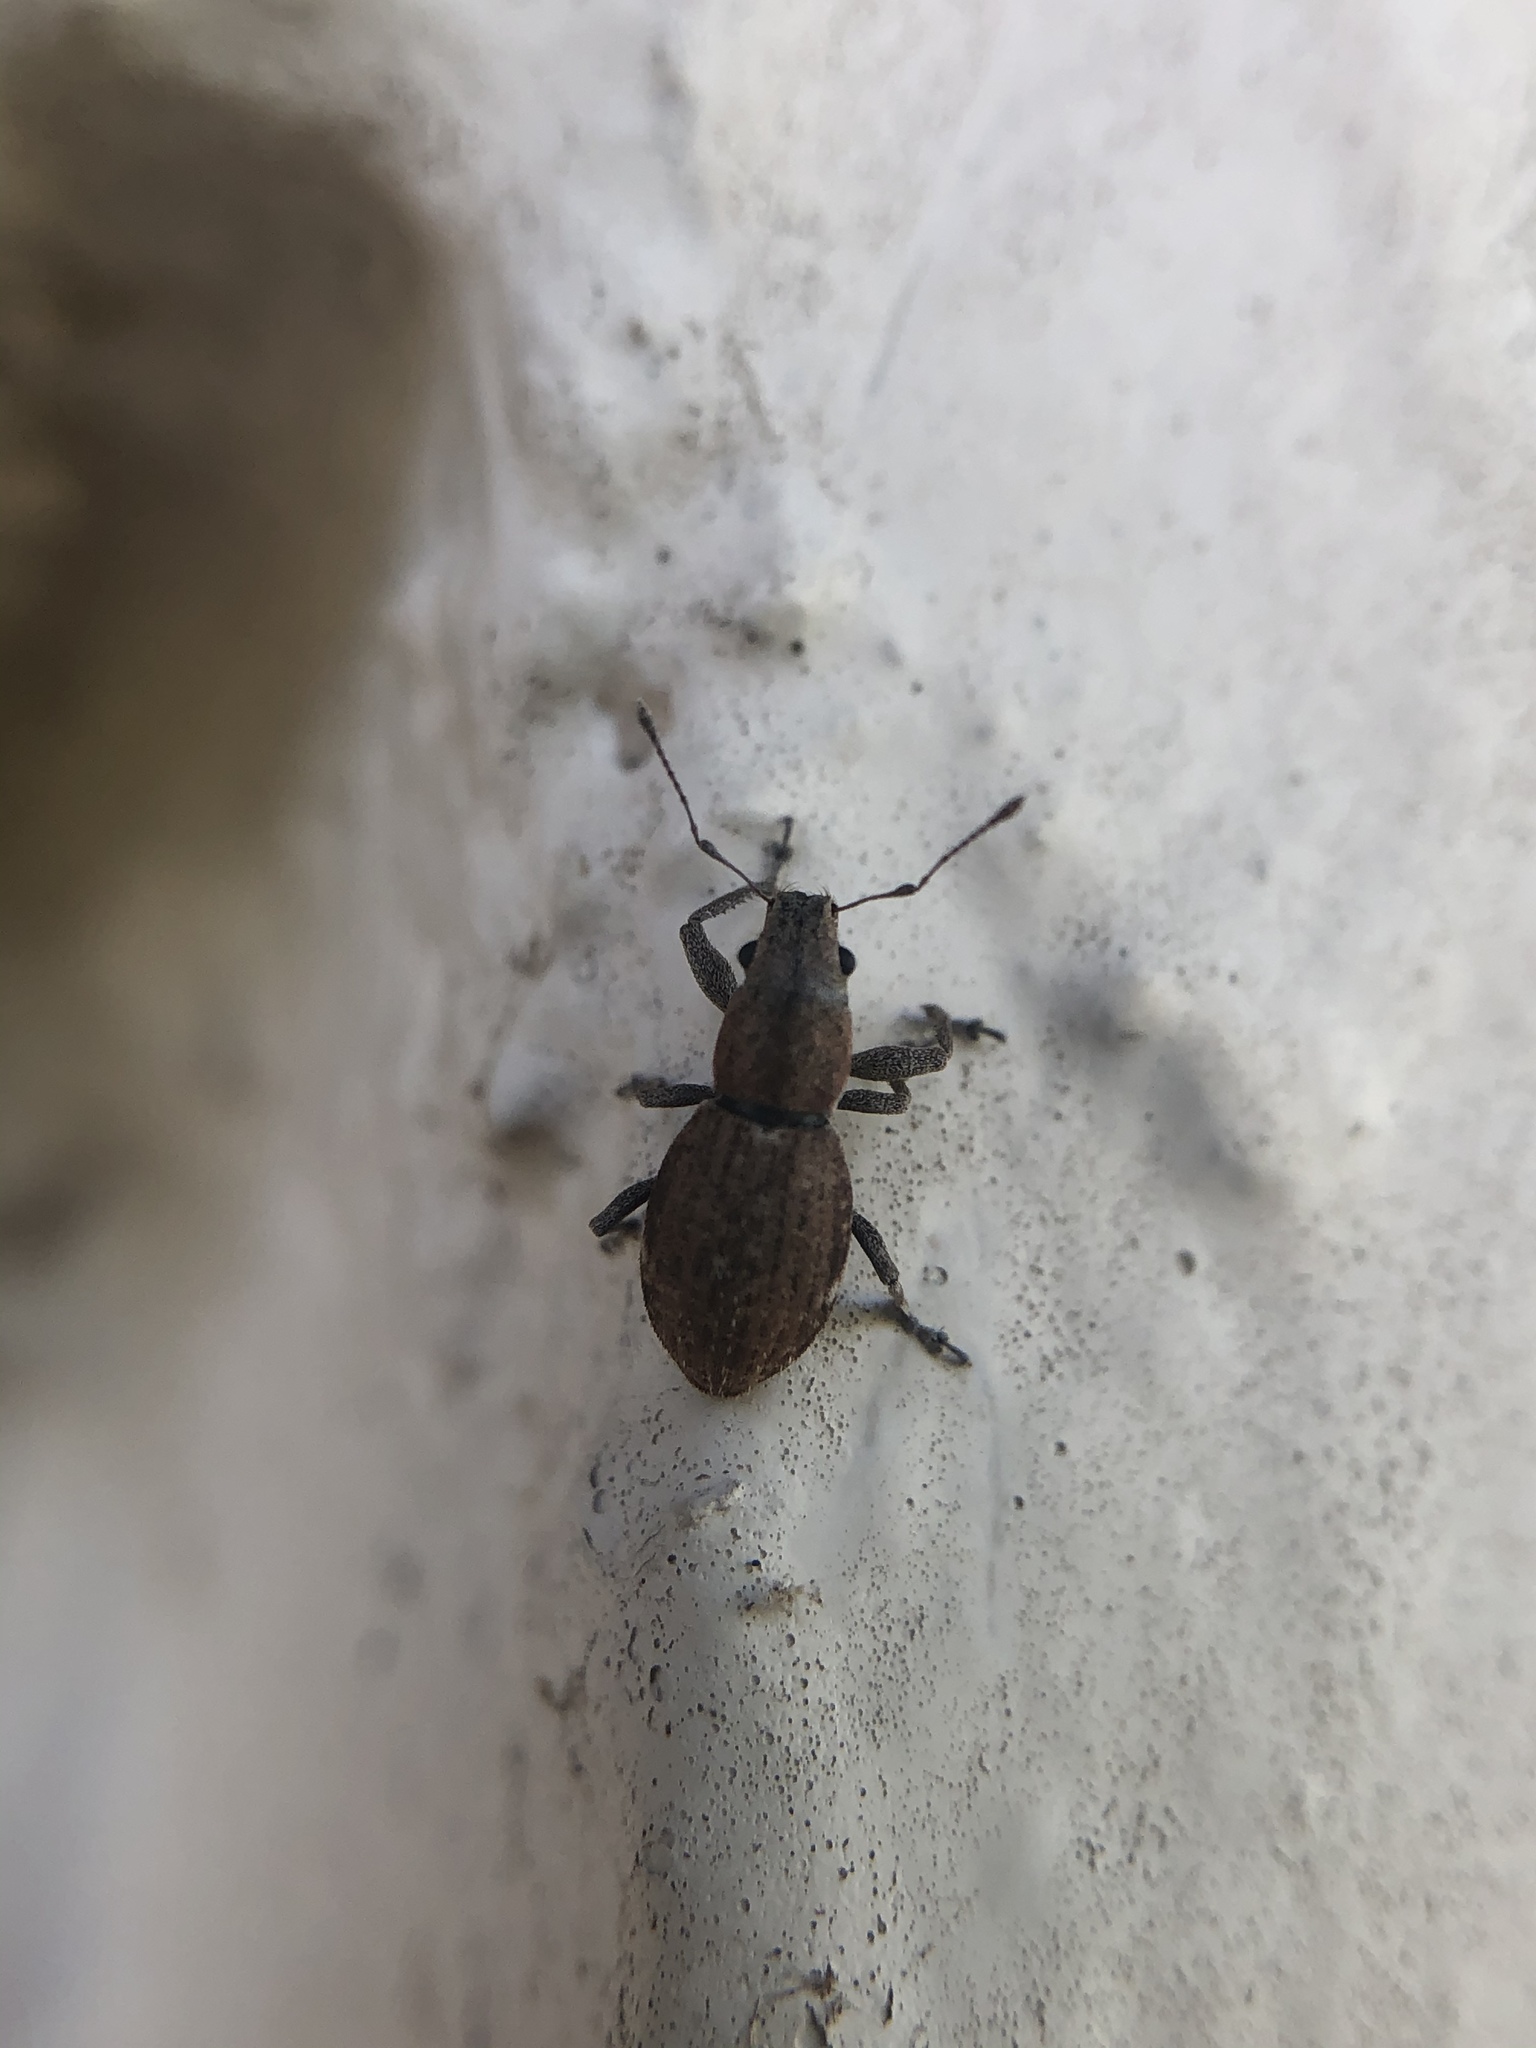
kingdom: Animalia
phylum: Arthropoda
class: Insecta
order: Coleoptera
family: Curculionidae
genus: Naupactus
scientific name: Naupactus cervinus
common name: Fuller rose beetle
